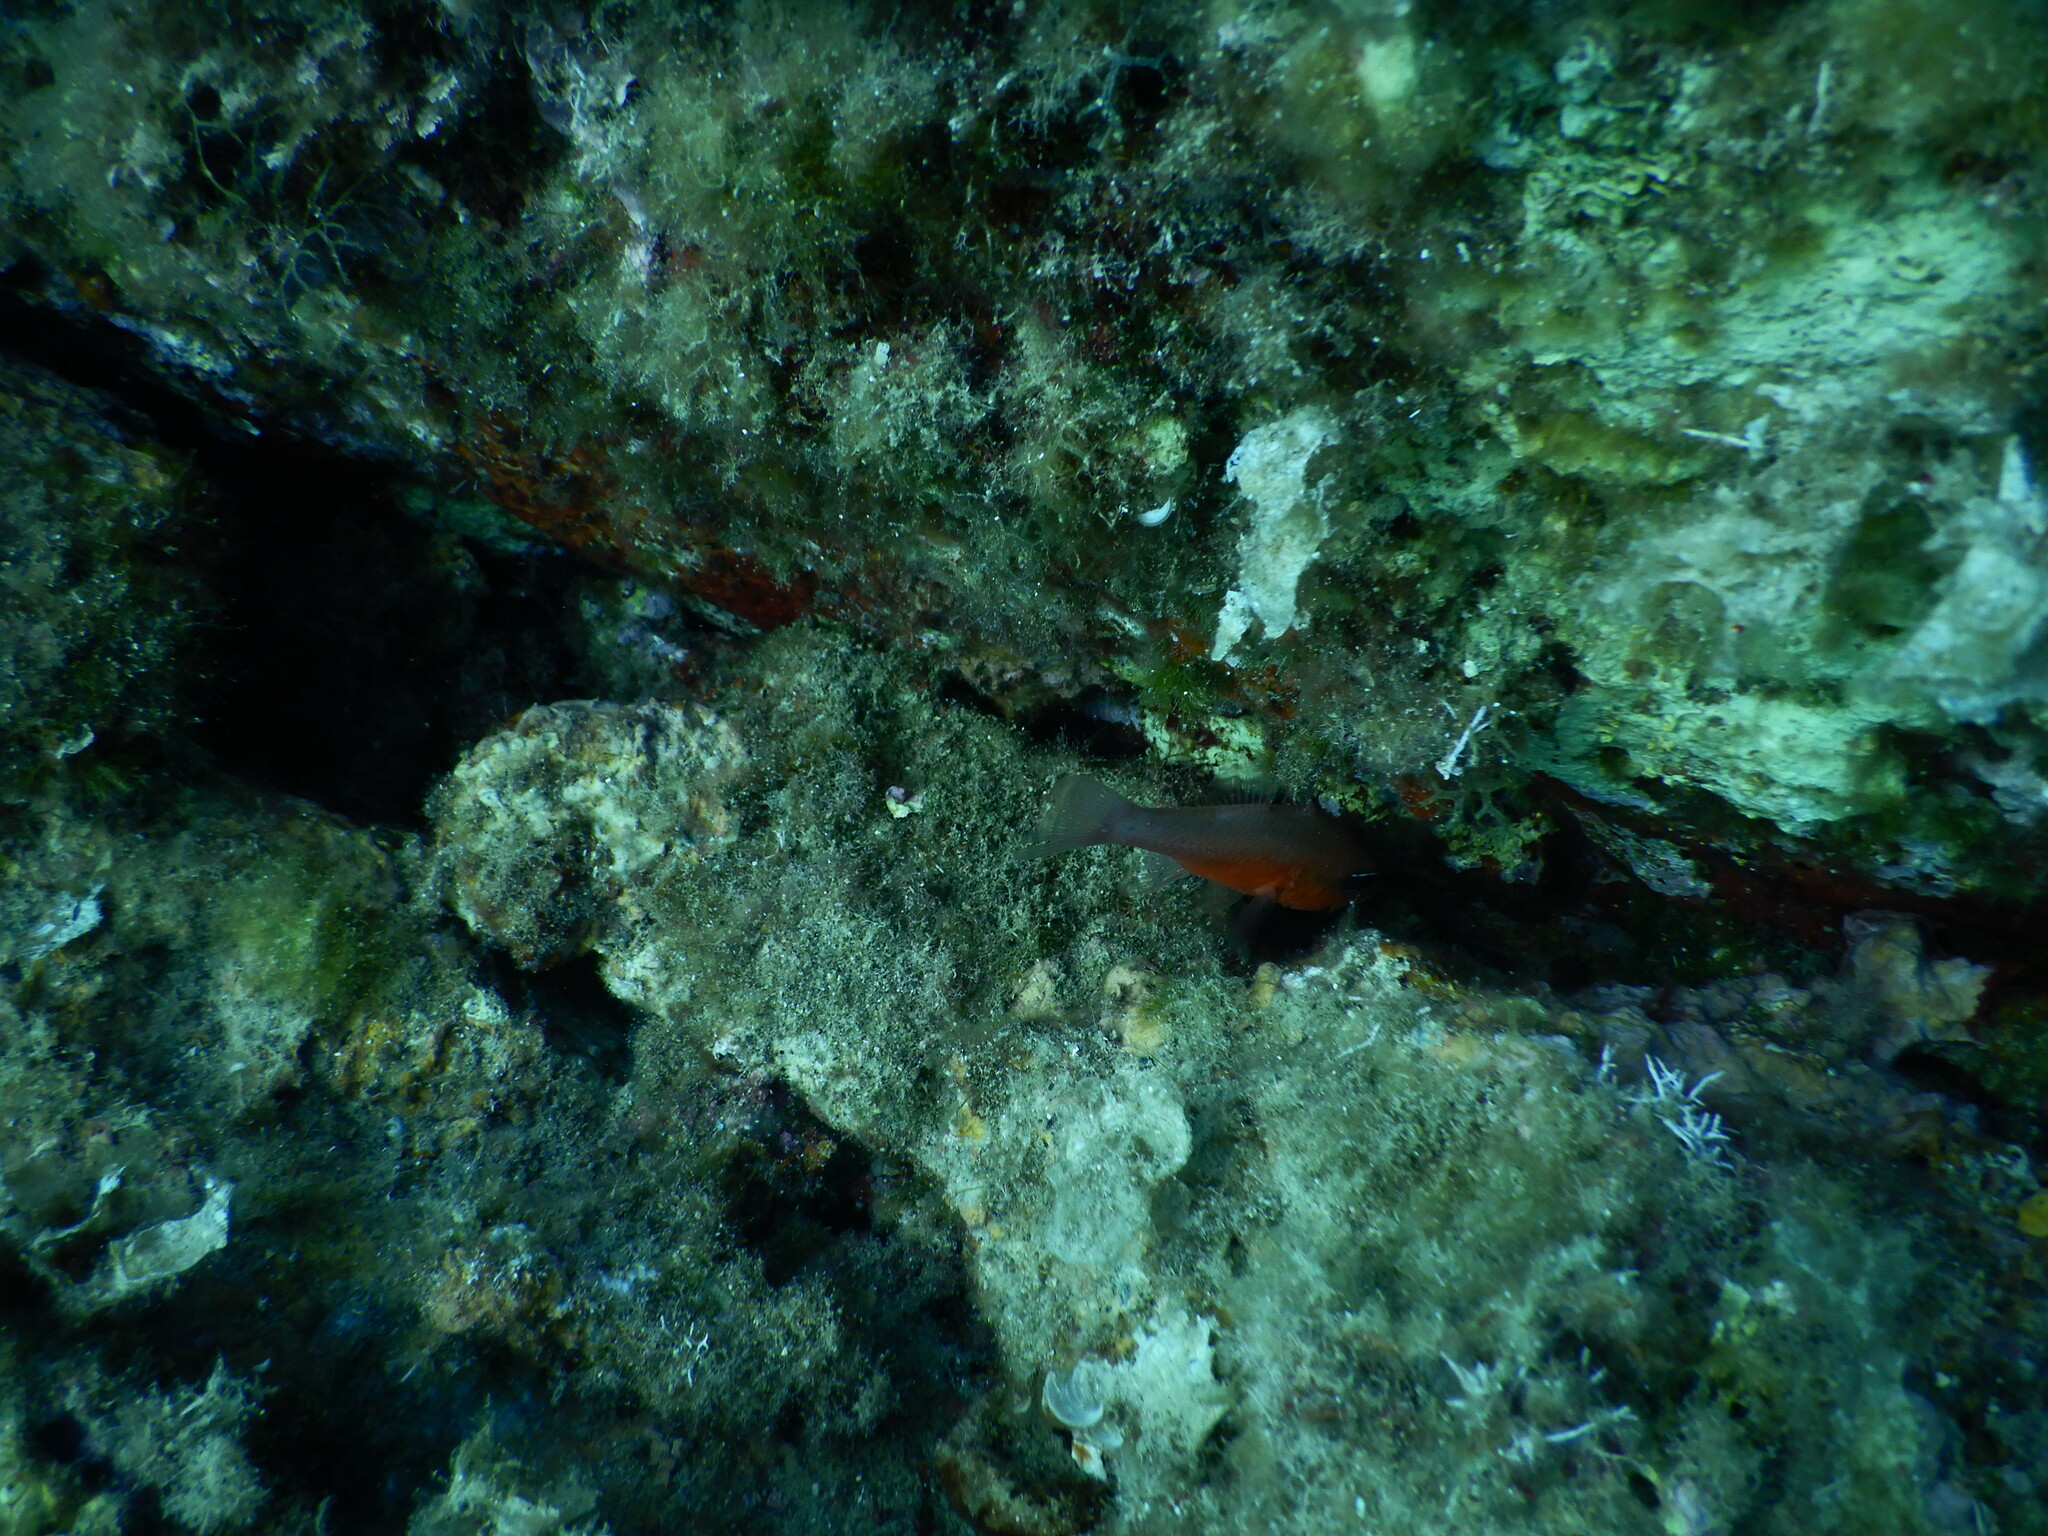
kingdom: Animalia
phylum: Chordata
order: Perciformes
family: Apogonidae
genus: Apogon
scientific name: Apogon imberbis
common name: Cardinal fish
